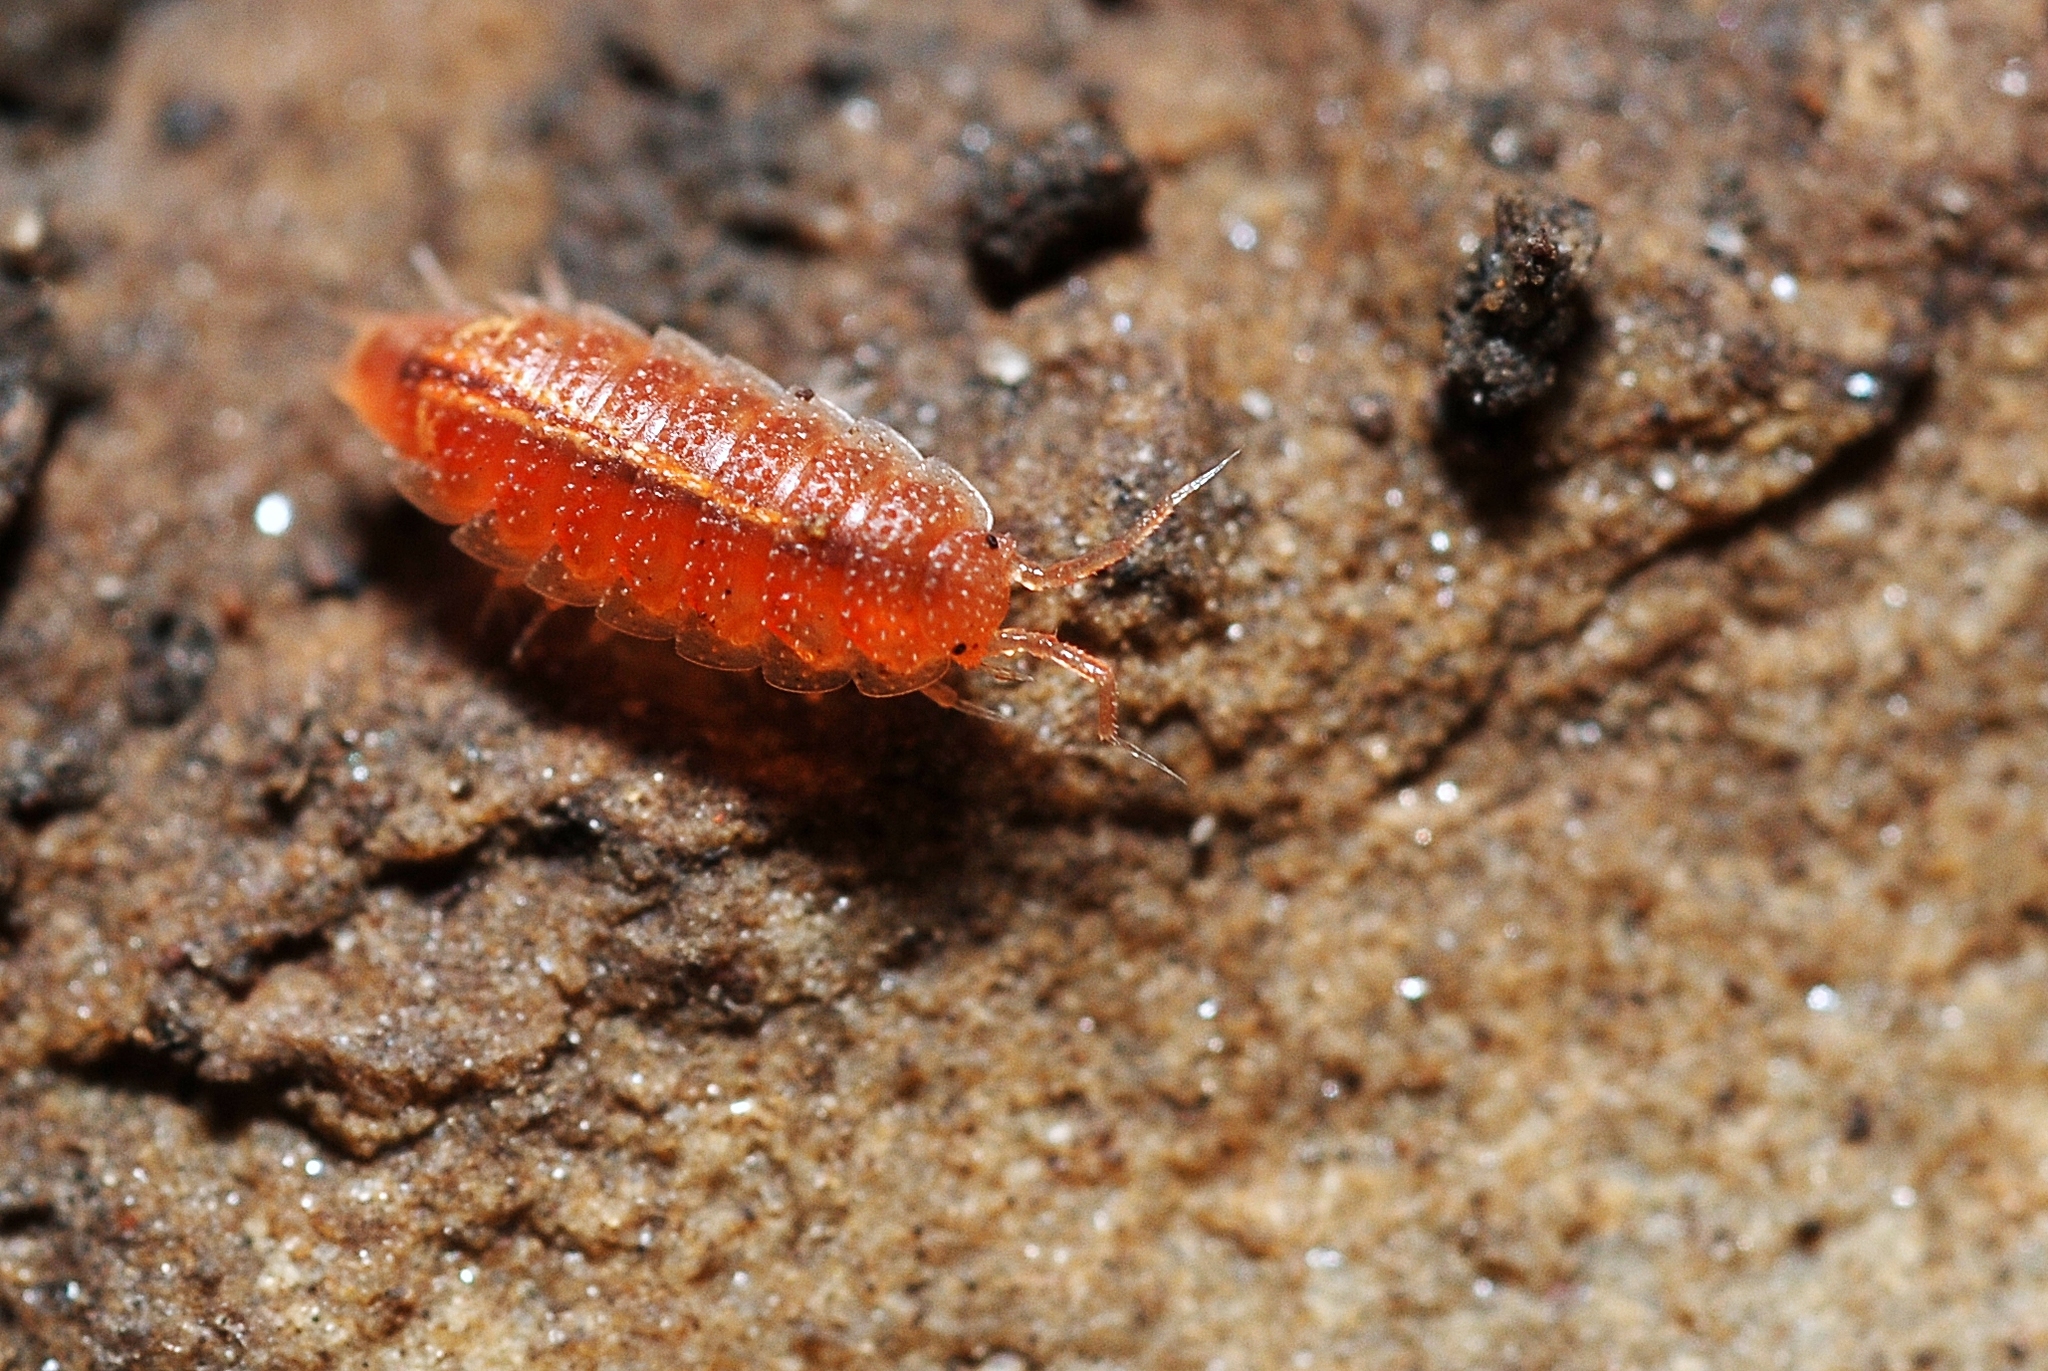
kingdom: Animalia
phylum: Arthropoda
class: Malacostraca
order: Isopoda
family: Trichoniscidae
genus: Androniscus
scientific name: Androniscus dentiger
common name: Rosy woodlouse
